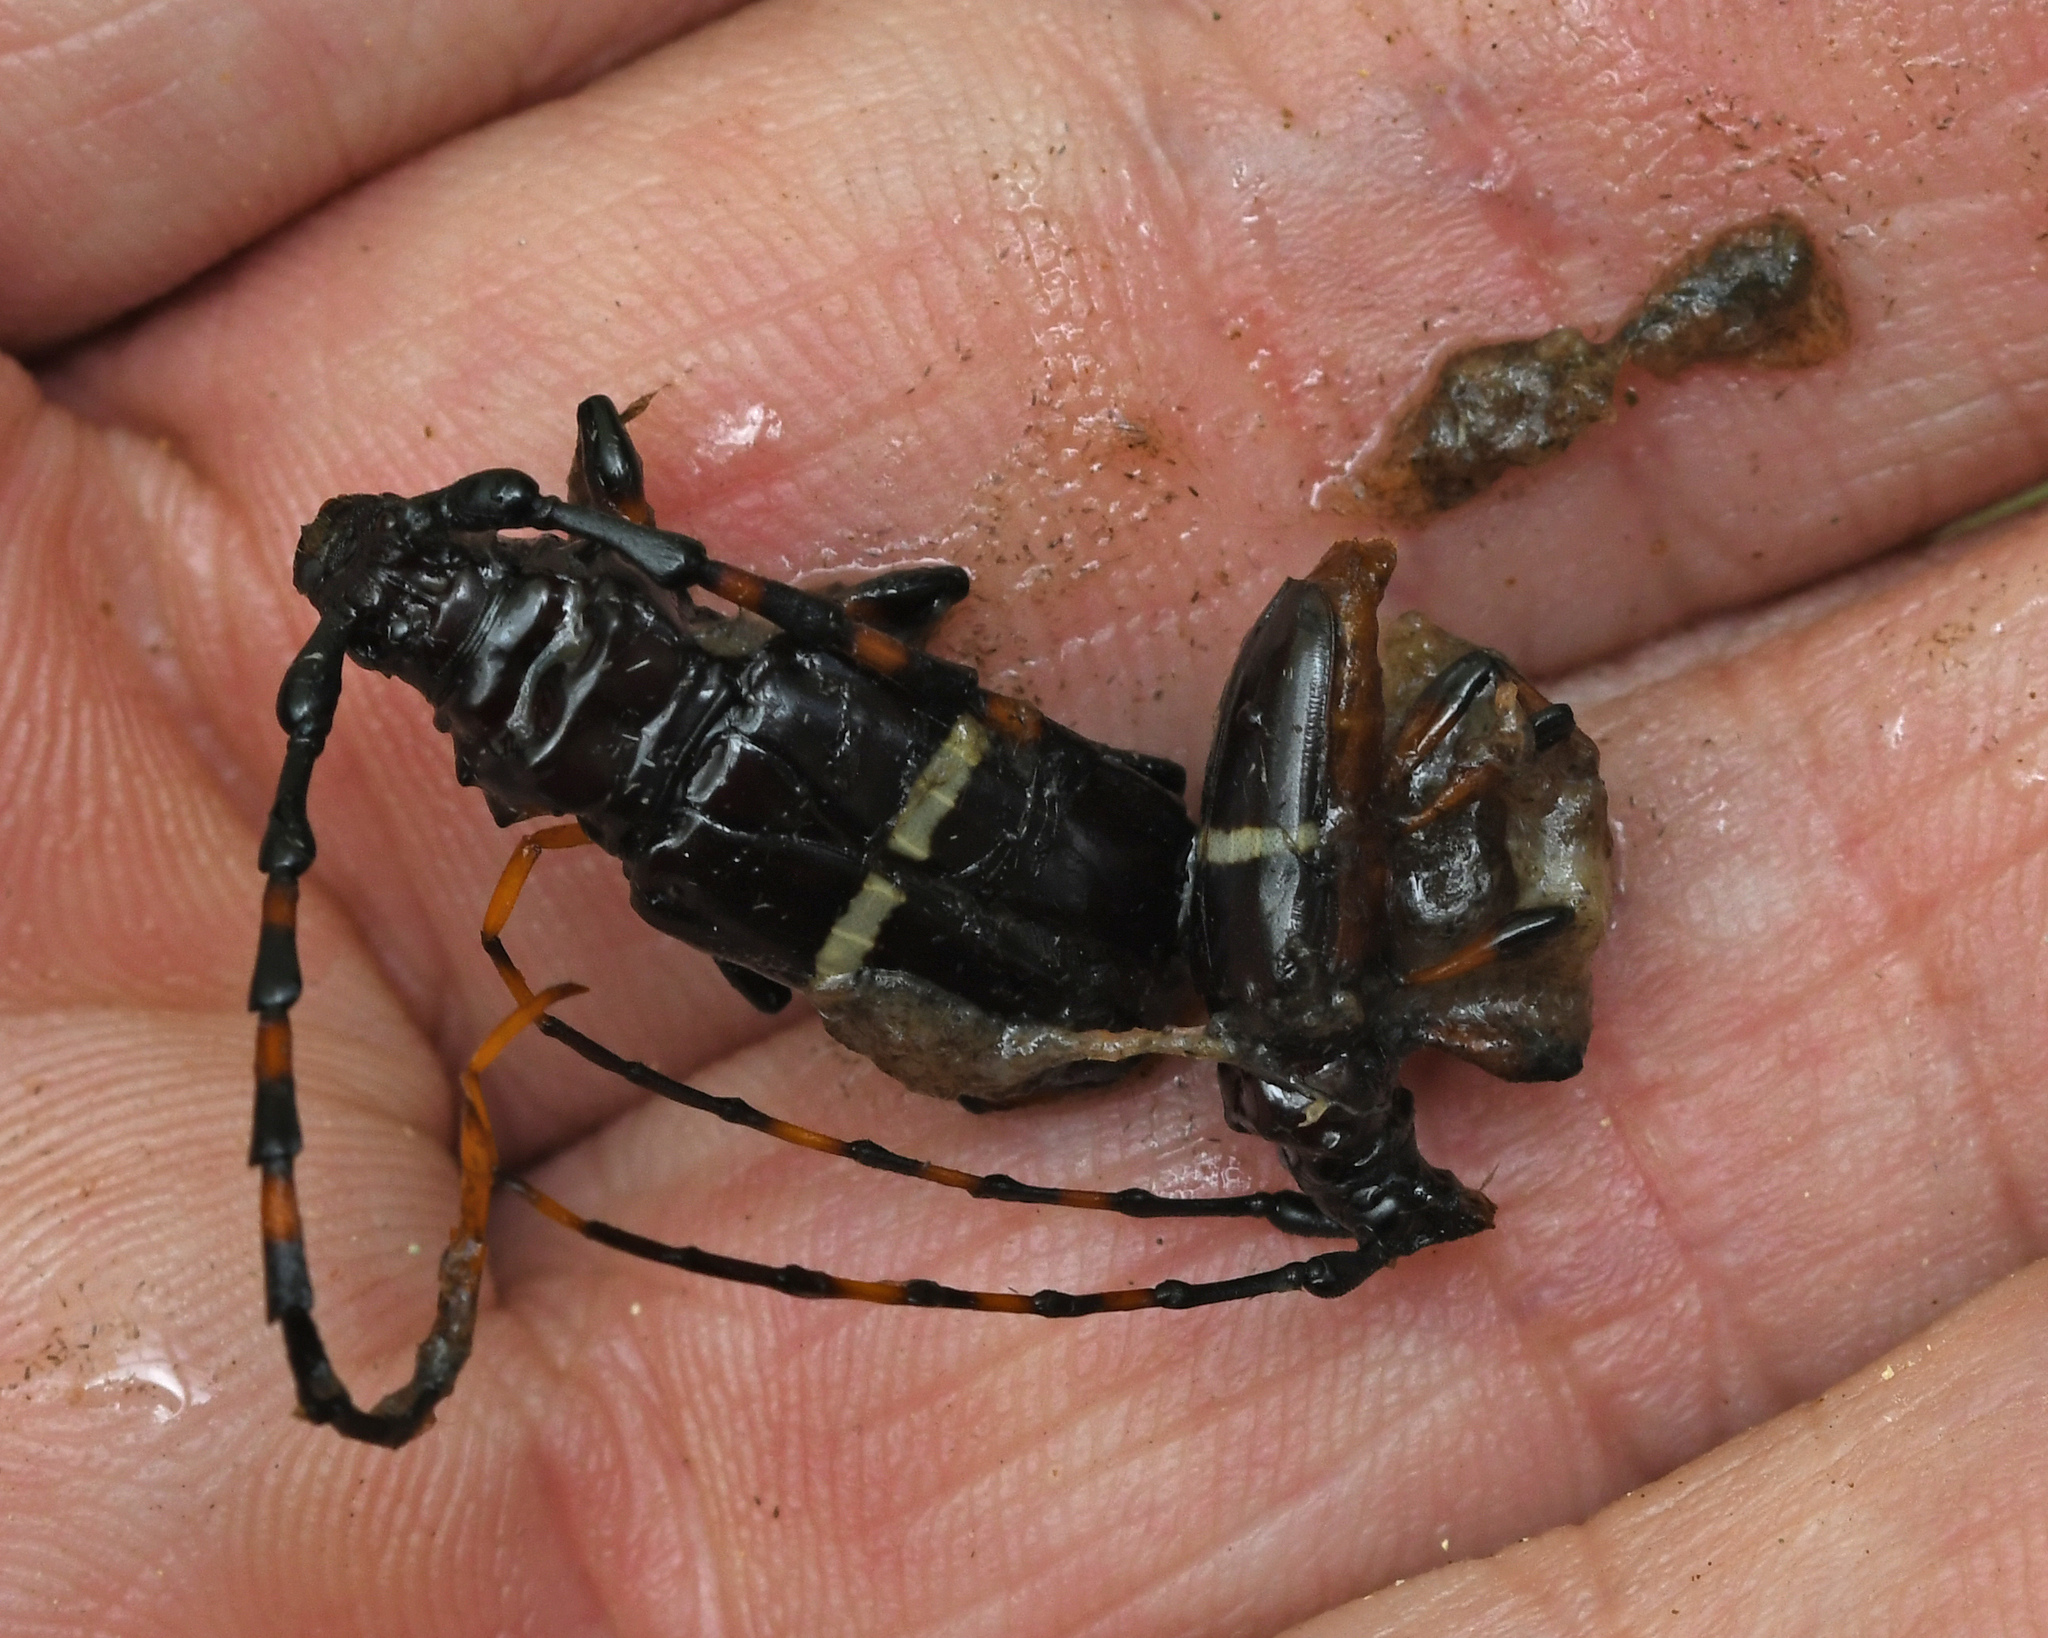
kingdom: Animalia
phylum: Arthropoda
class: Insecta
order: Coleoptera
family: Cerambycidae
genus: Trachyderes
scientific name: Trachyderes succinctus
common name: Mango longhorn
